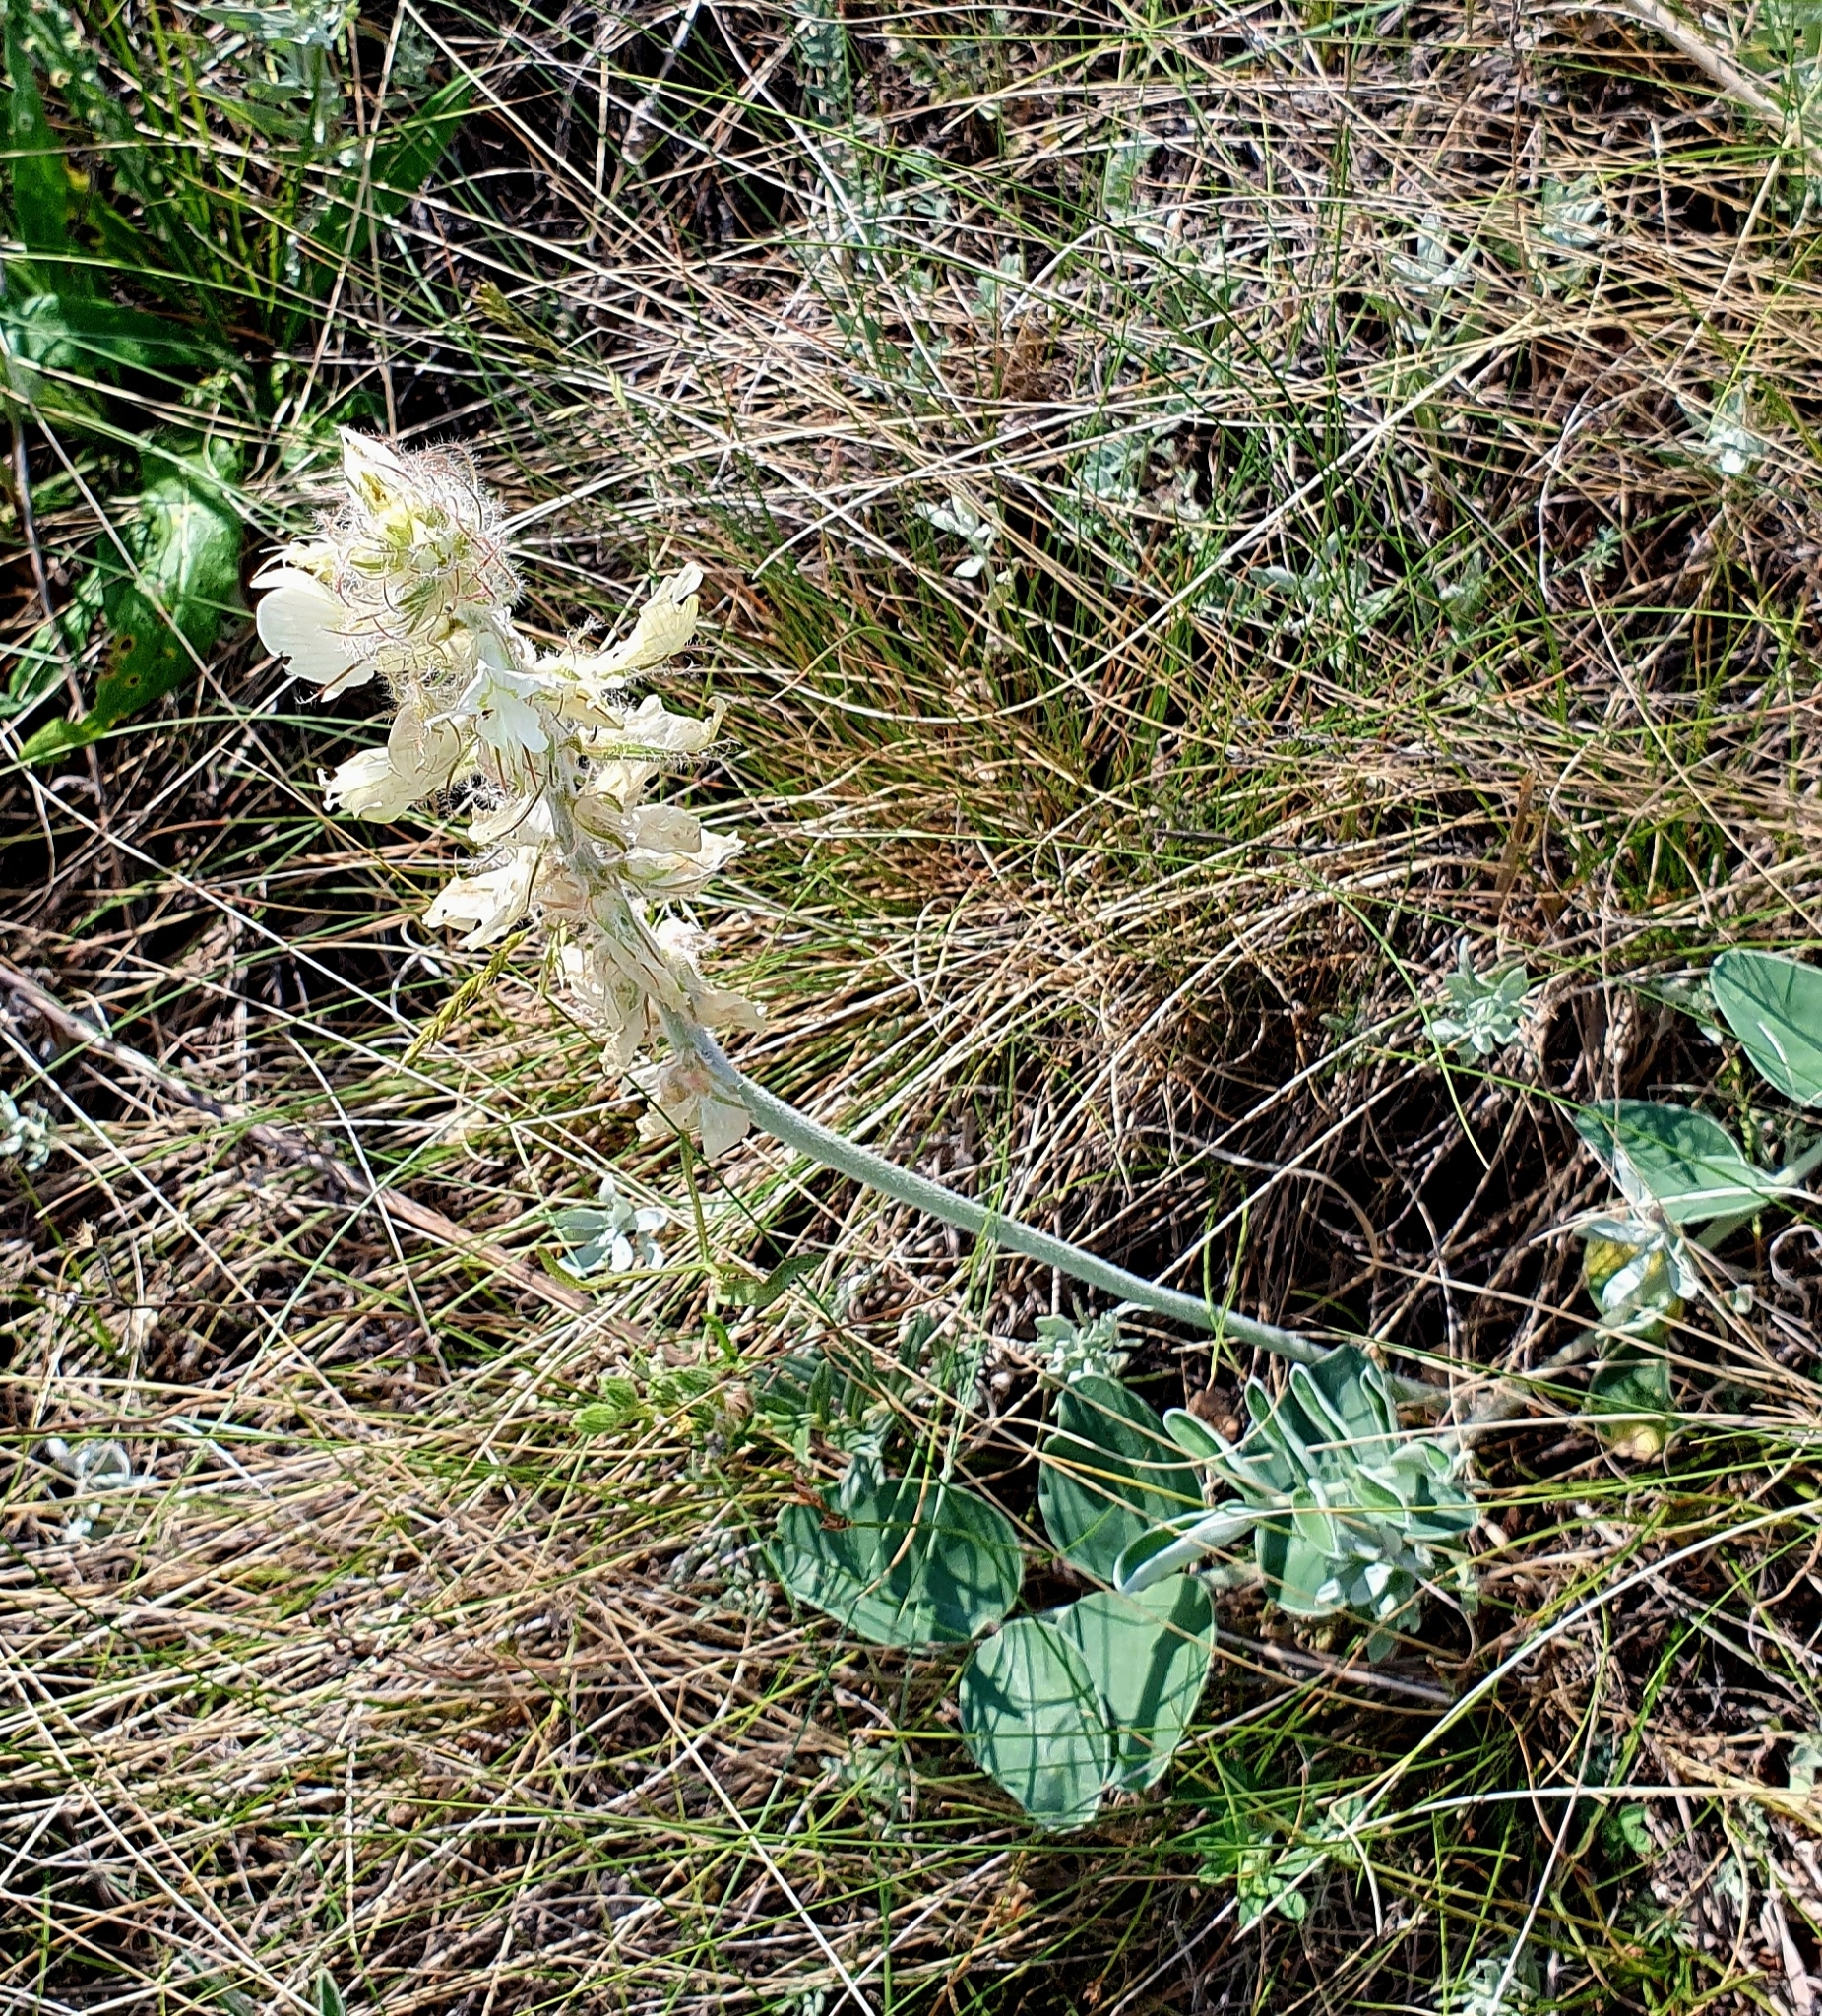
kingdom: Plantae
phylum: Tracheophyta
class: Magnoliopsida
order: Fabales
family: Fabaceae
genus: Hedysarum
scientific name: Hedysarum grandiflorum
